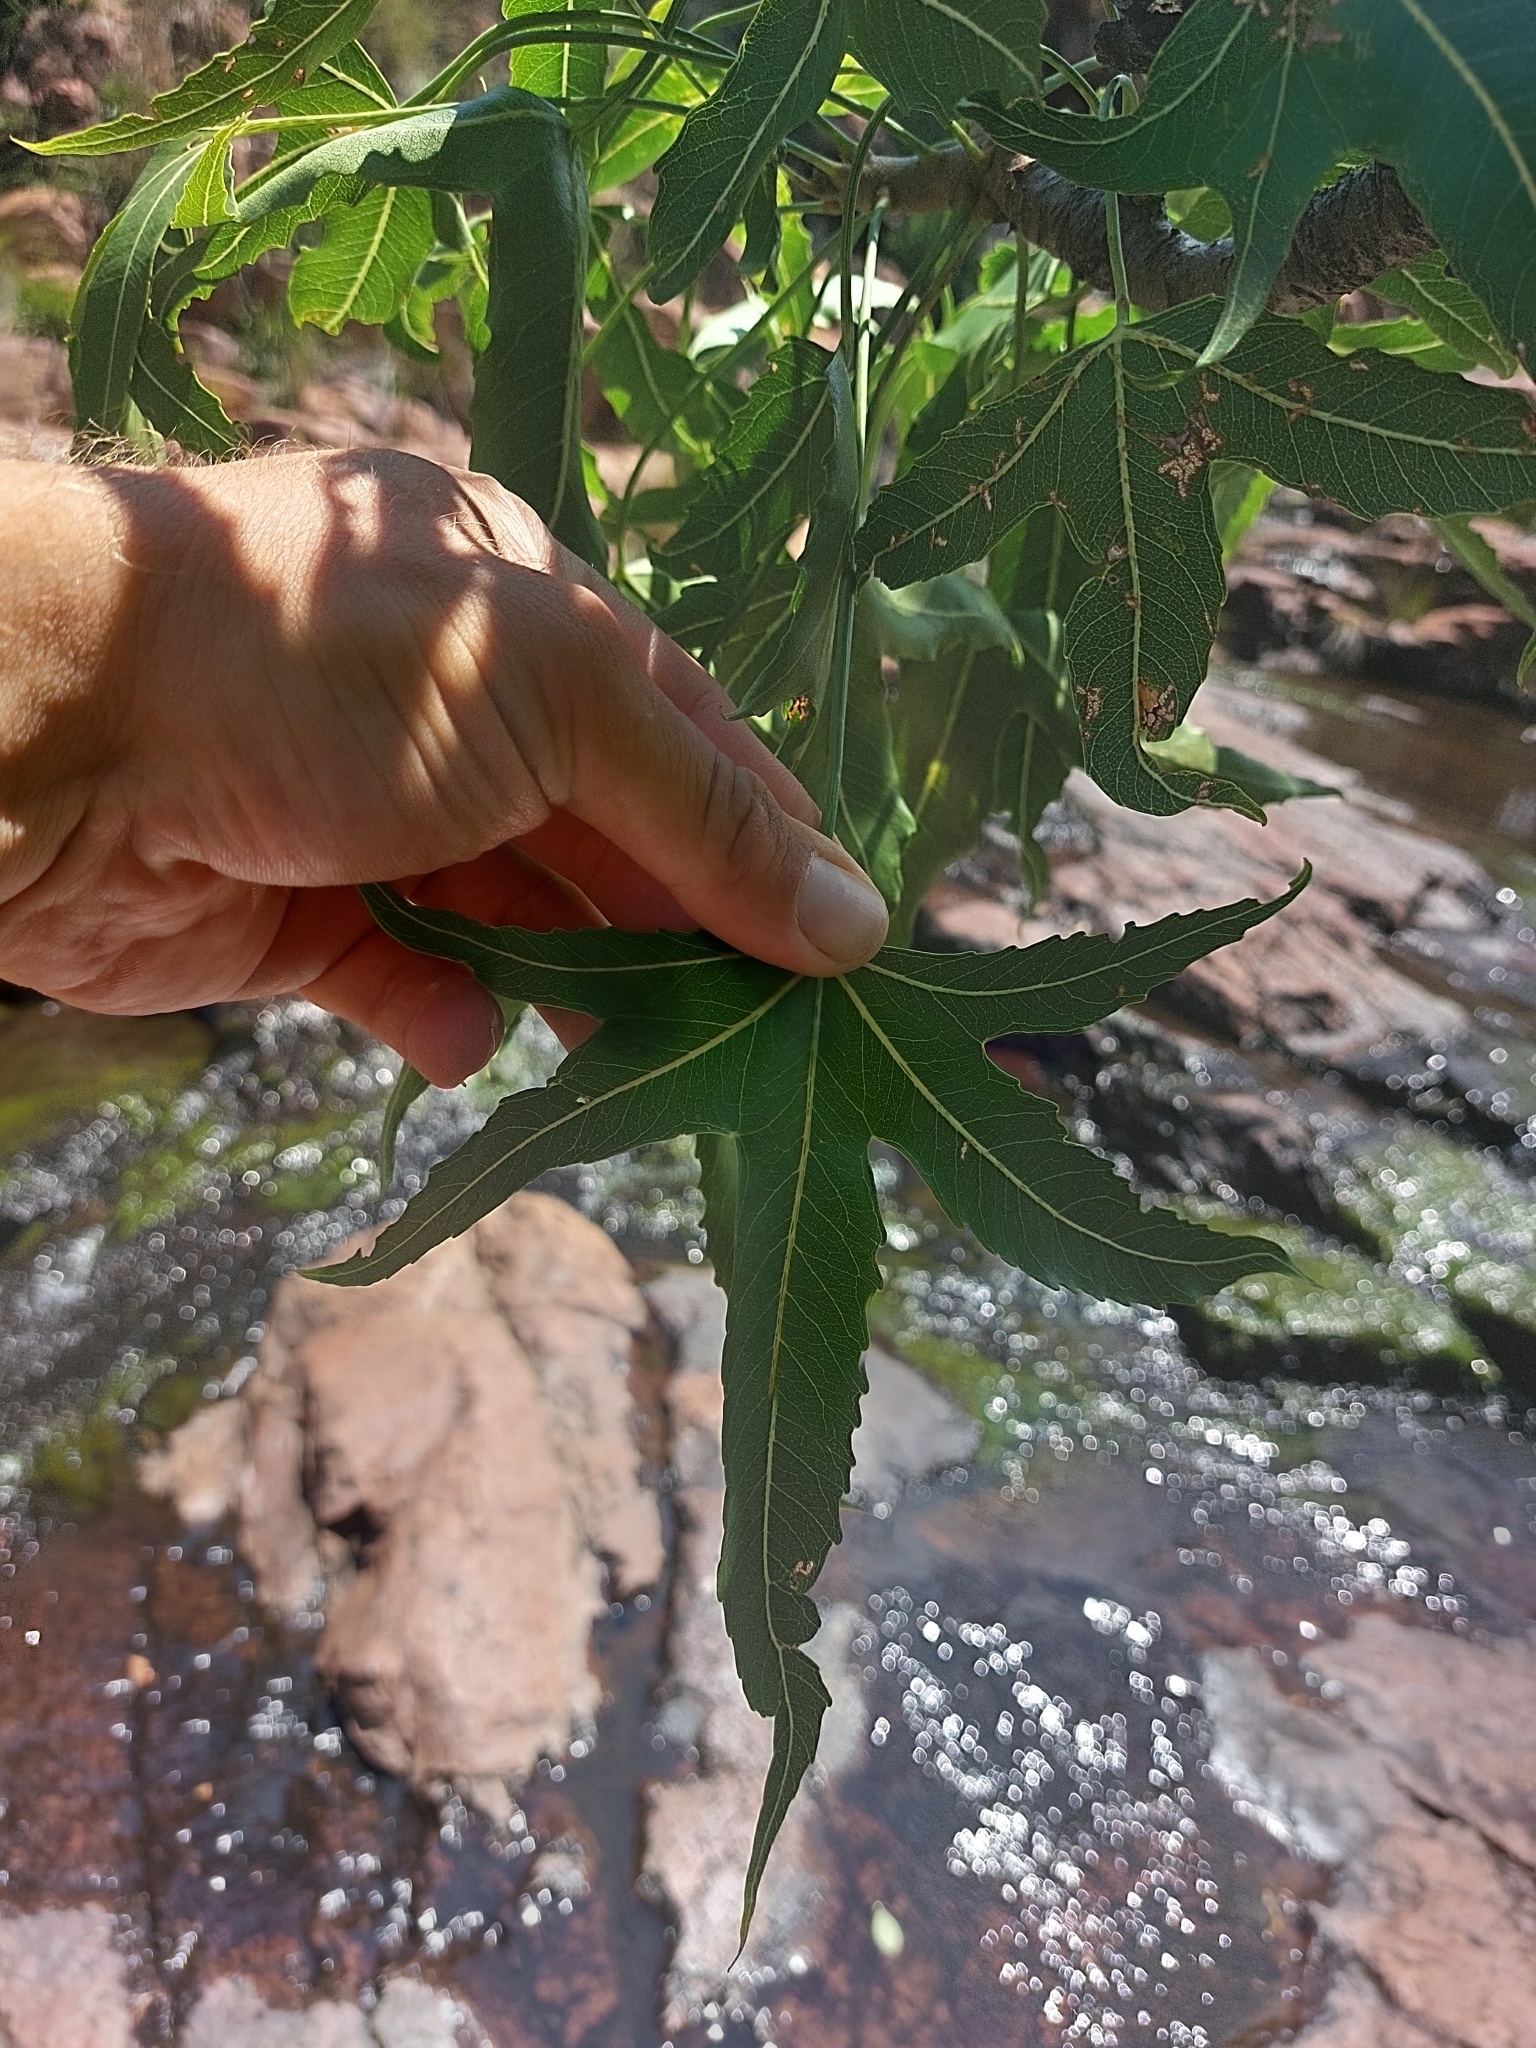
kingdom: Plantae
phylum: Tracheophyta
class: Magnoliopsida
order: Apiales
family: Araliaceae
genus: Cussonia
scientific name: Cussonia natalensis
